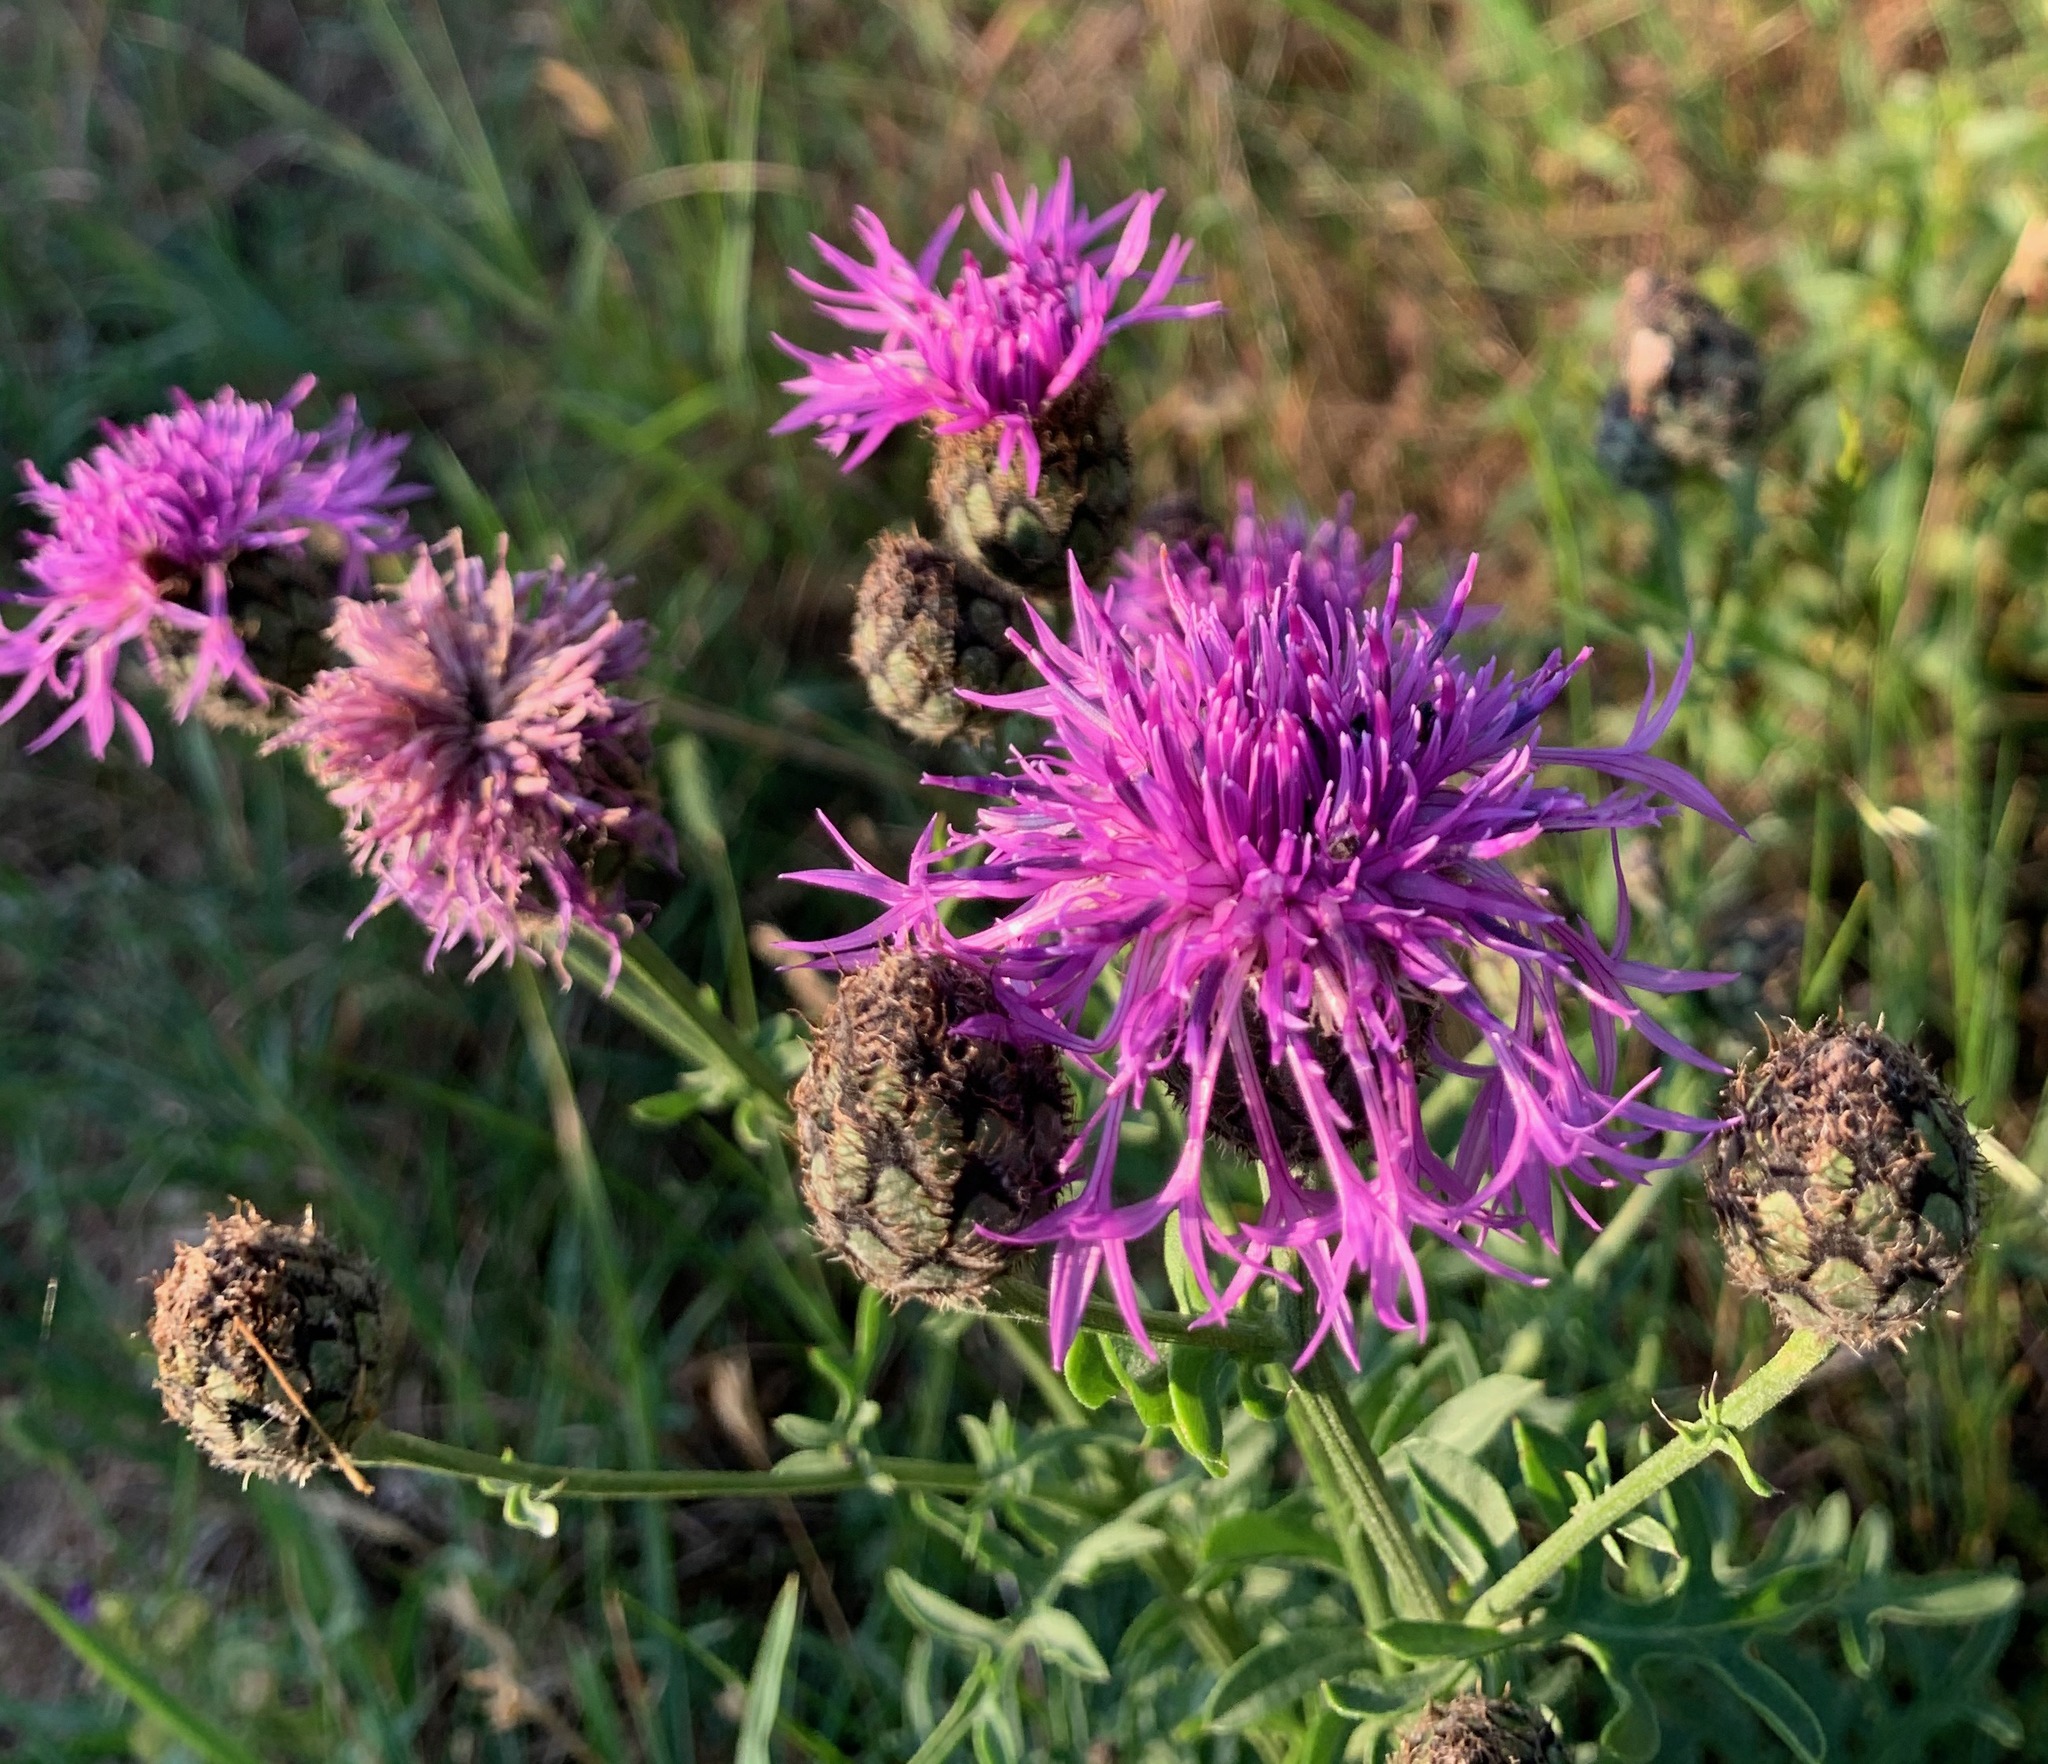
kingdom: Plantae
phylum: Tracheophyta
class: Magnoliopsida
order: Asterales
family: Asteraceae
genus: Centaurea
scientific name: Centaurea scabiosa
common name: Greater knapweed
